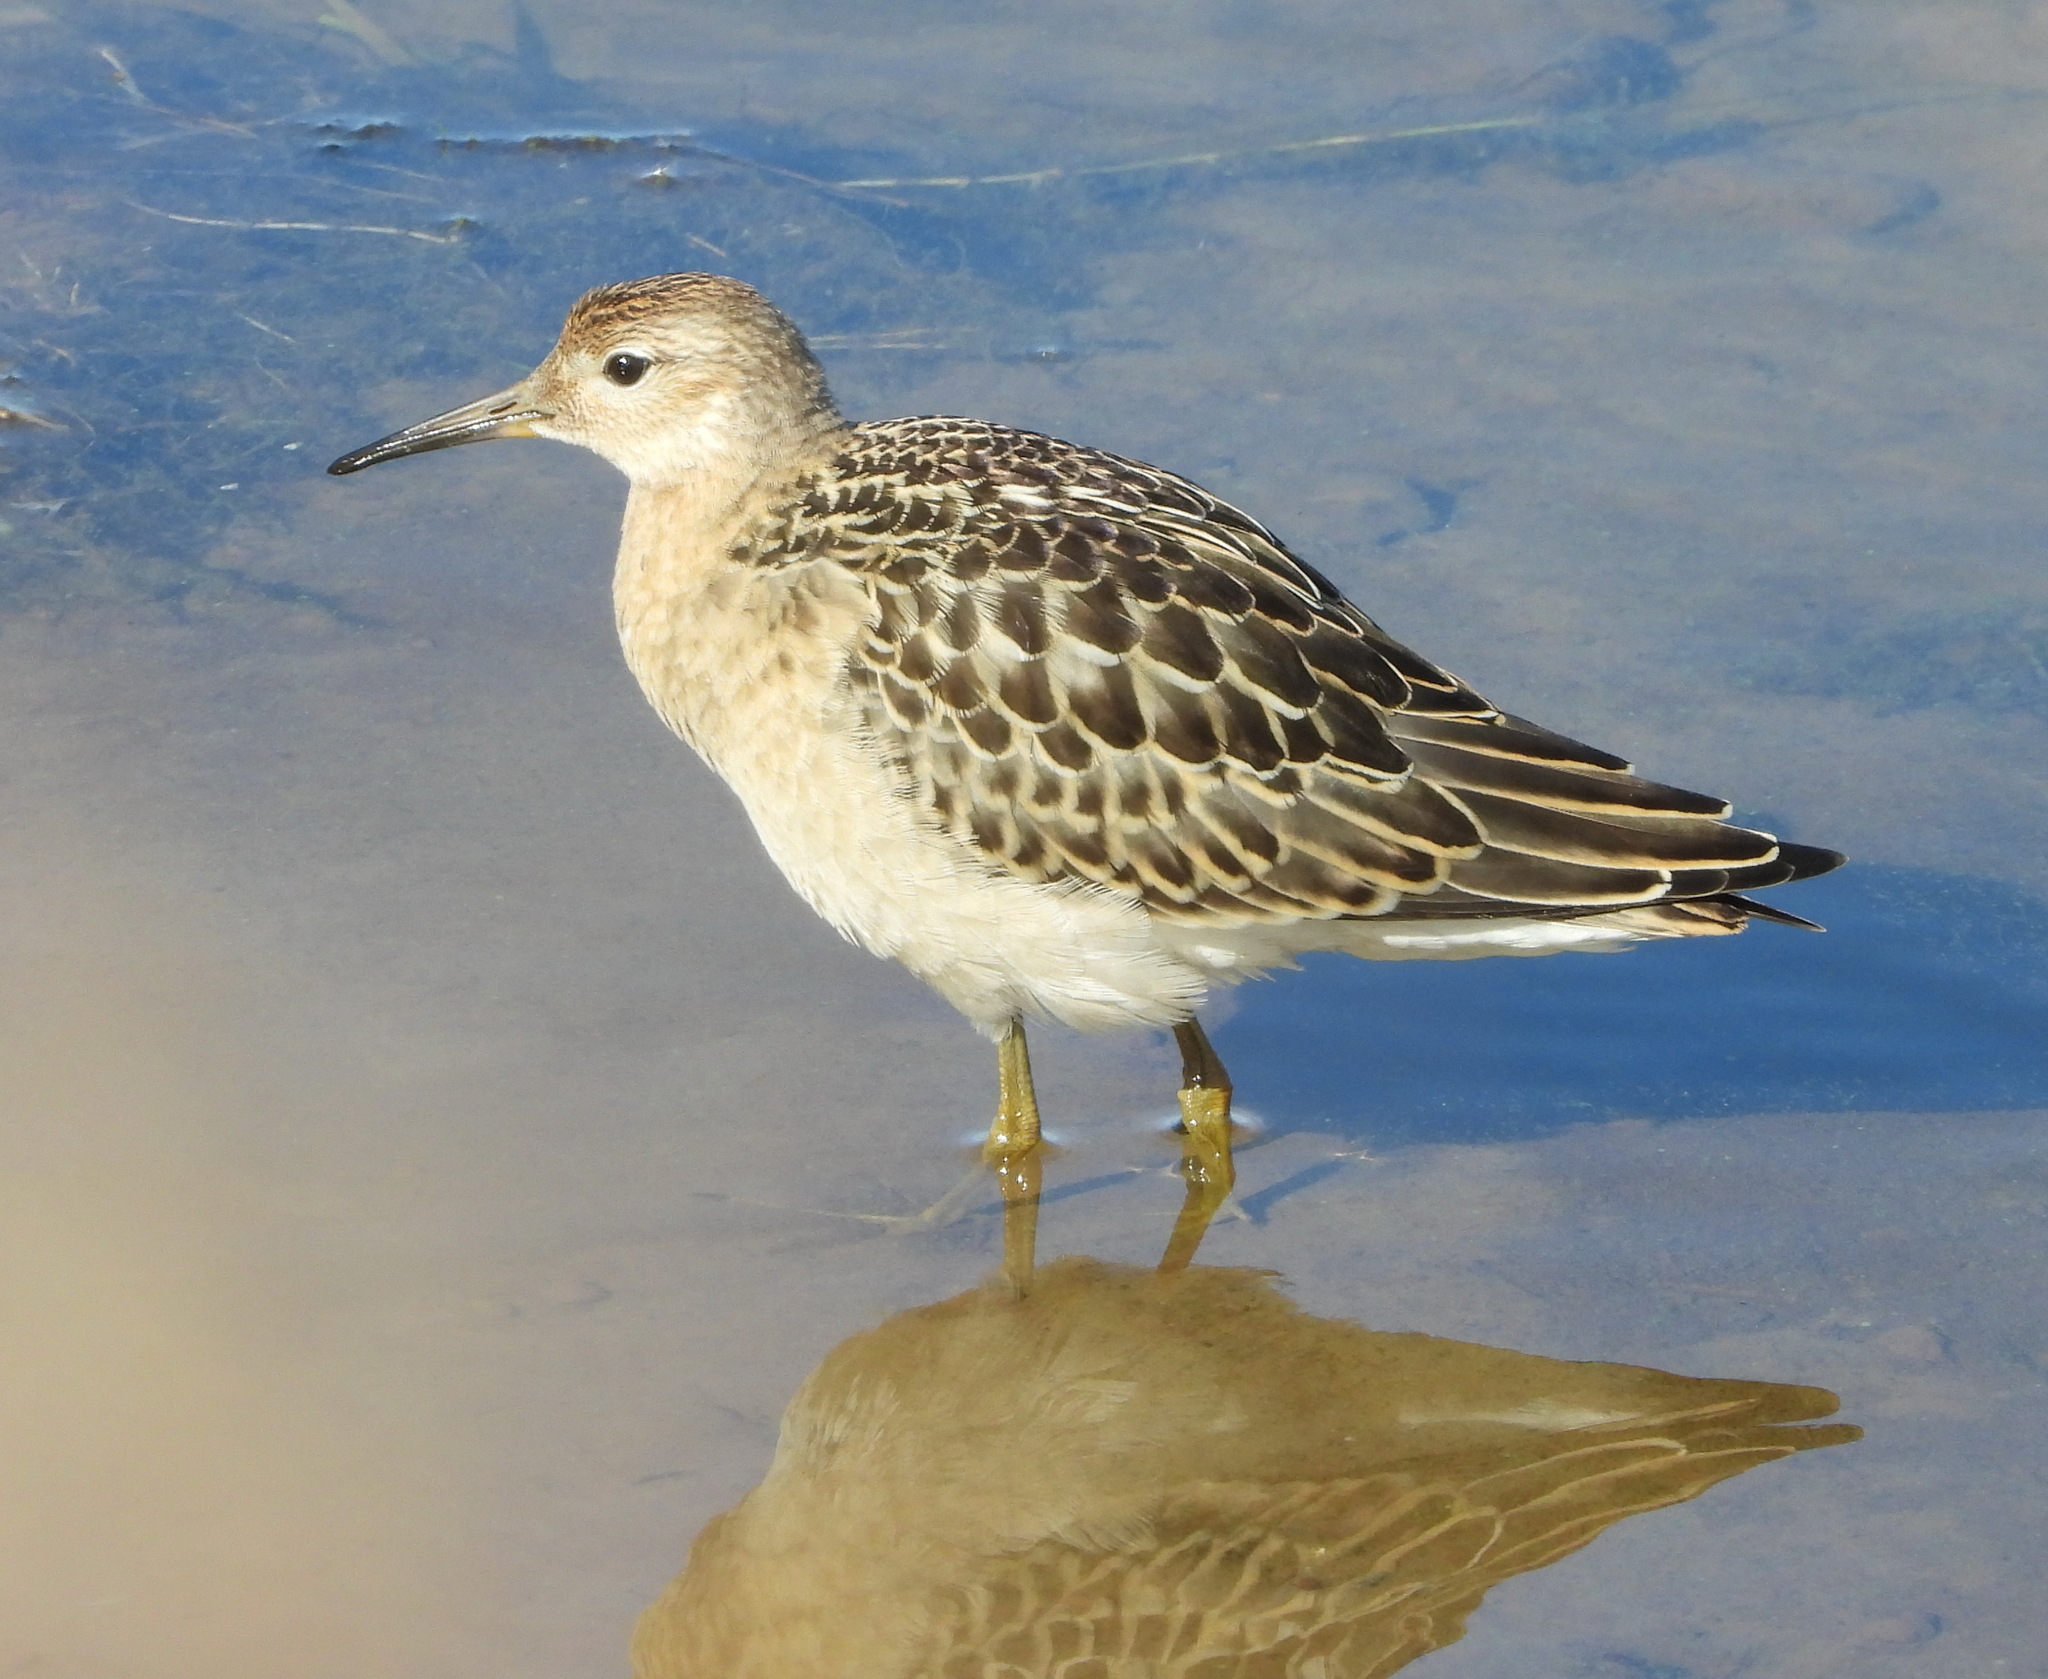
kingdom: Animalia
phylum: Chordata
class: Aves
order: Charadriiformes
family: Scolopacidae
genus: Calidris
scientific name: Calidris pugnax
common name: Ruff
